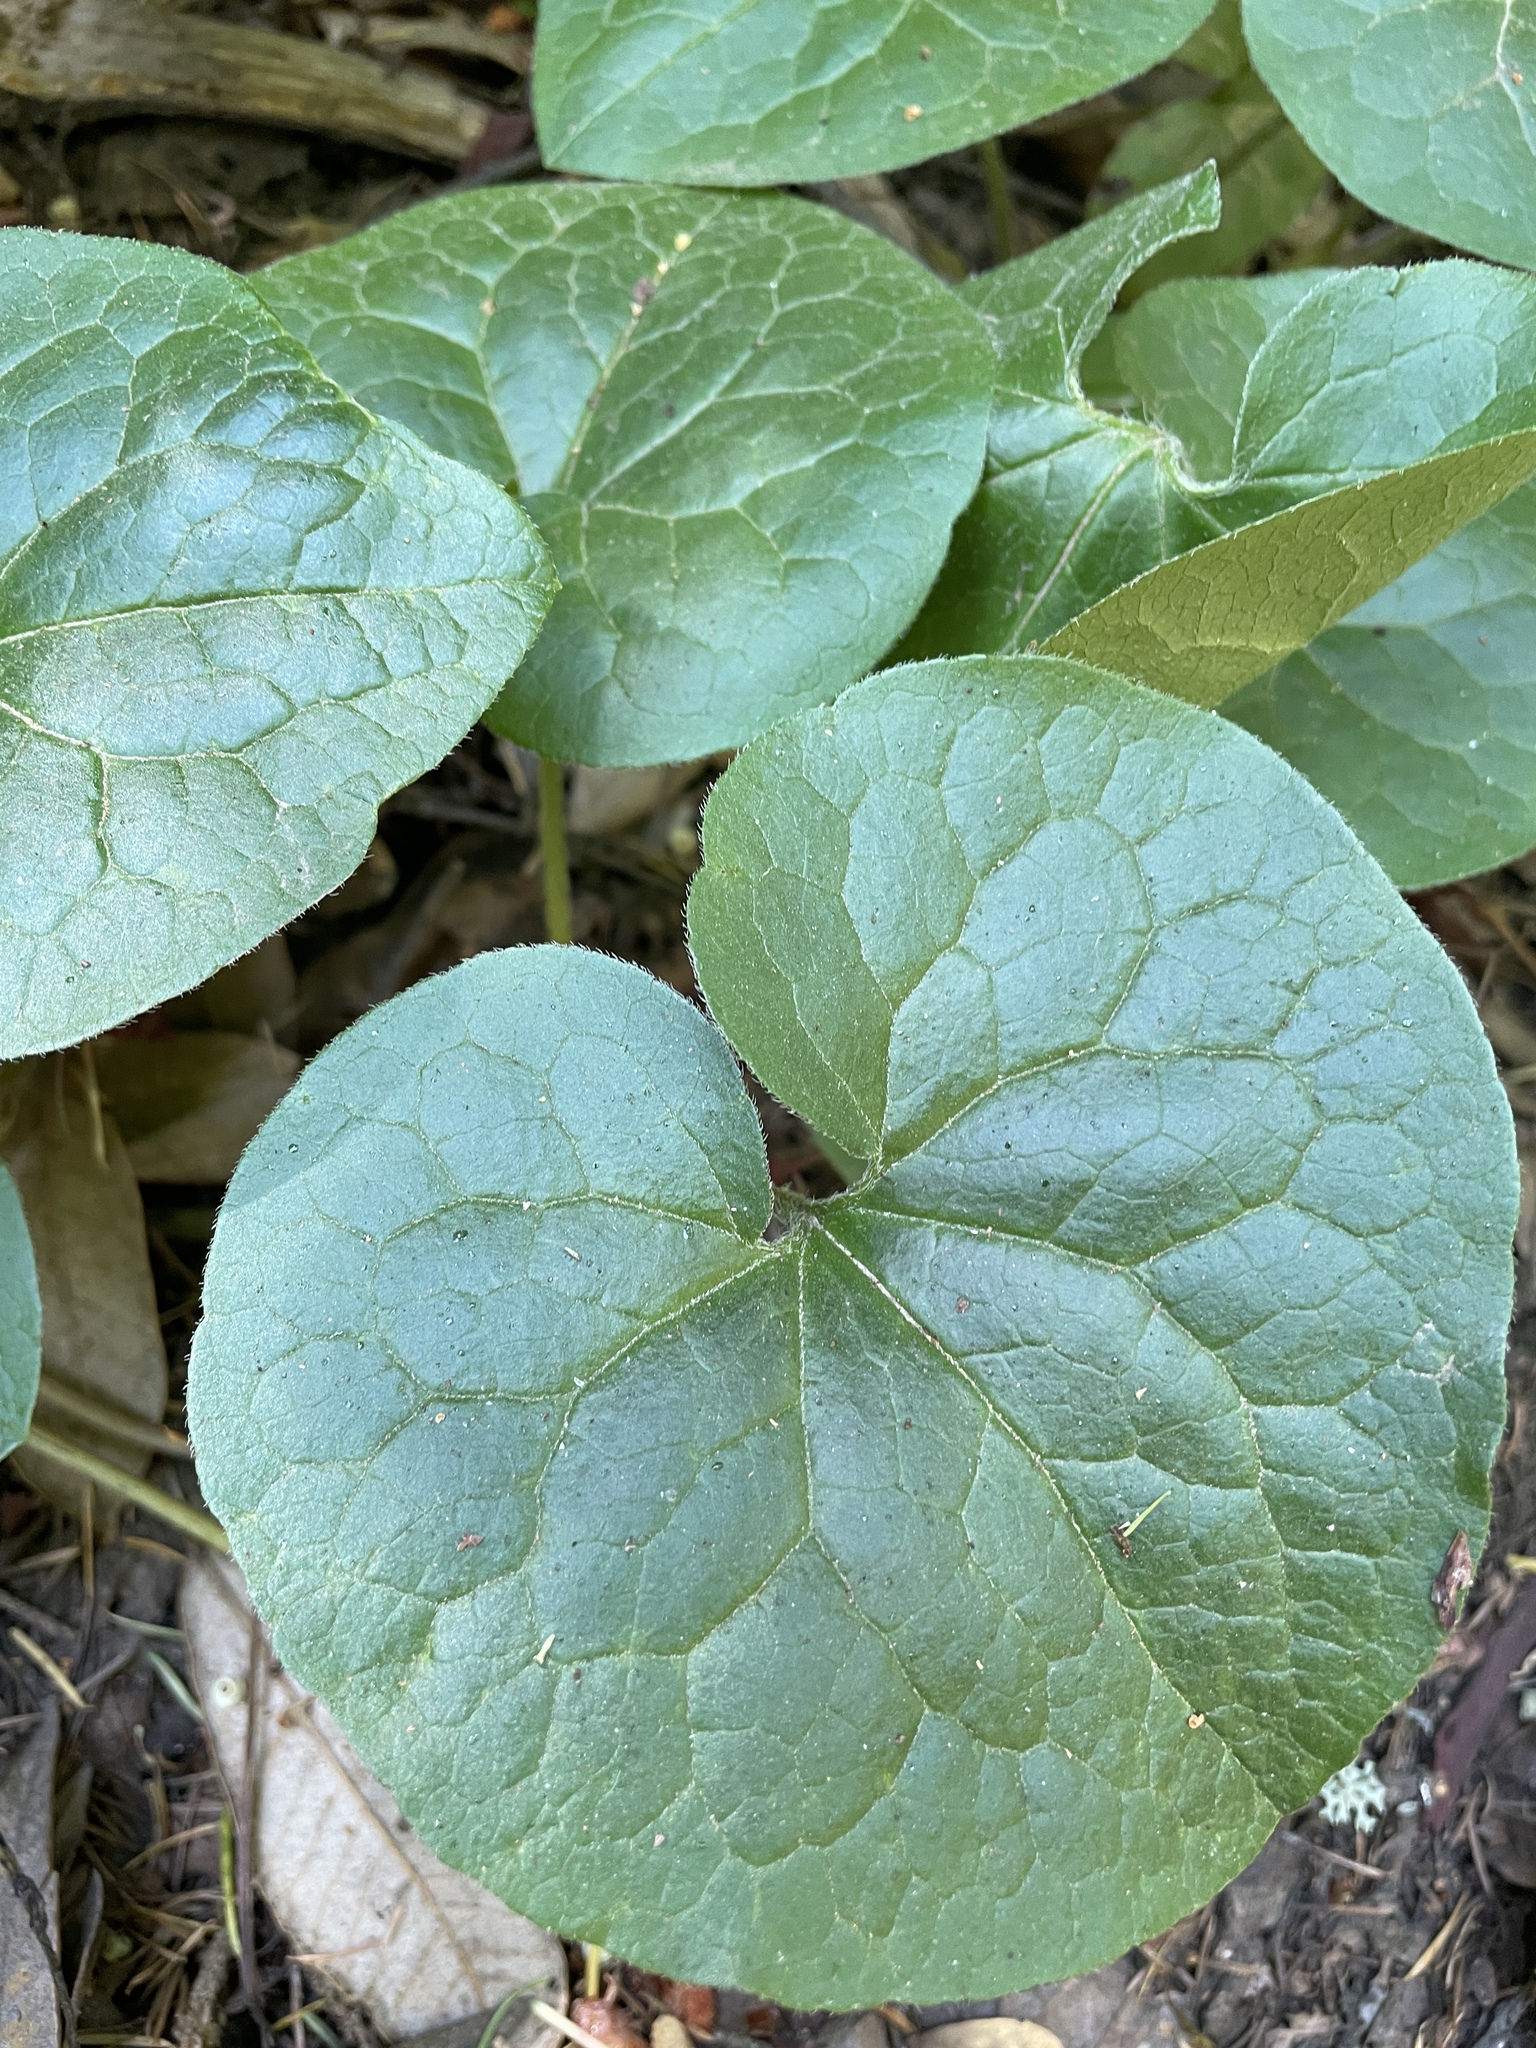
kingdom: Plantae
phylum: Tracheophyta
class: Magnoliopsida
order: Piperales
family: Aristolochiaceae
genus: Asarum
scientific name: Asarum caudatum
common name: Wild ginger
